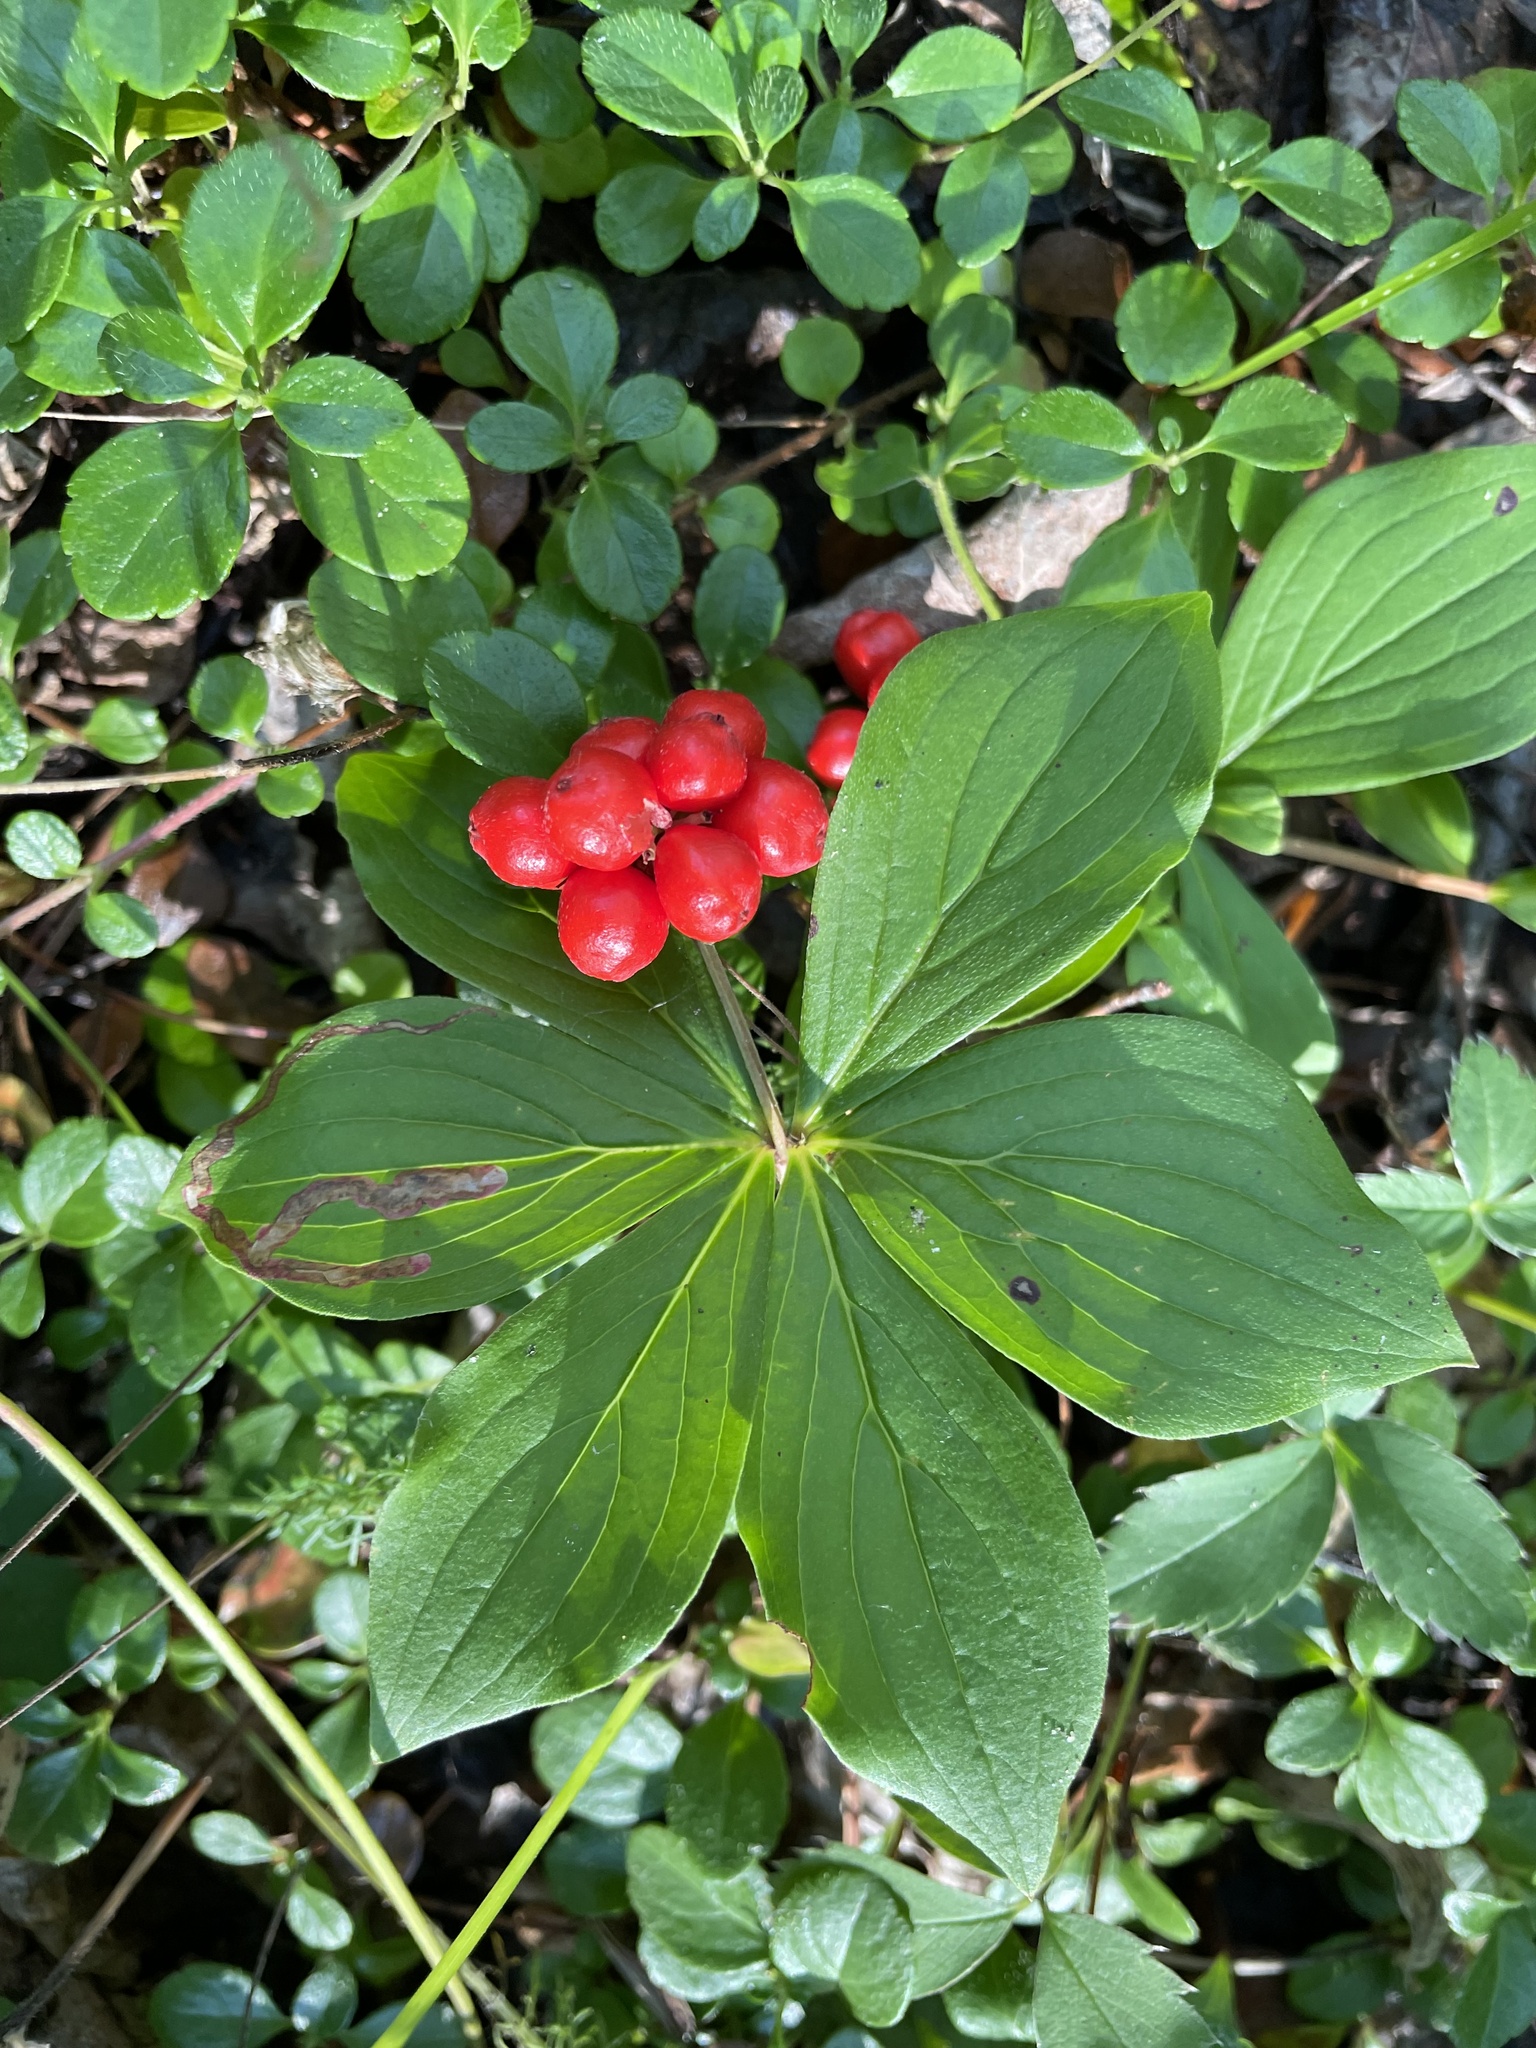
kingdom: Plantae
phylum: Tracheophyta
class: Magnoliopsida
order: Cornales
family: Cornaceae
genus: Cornus
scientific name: Cornus canadensis
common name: Creeping dogwood
